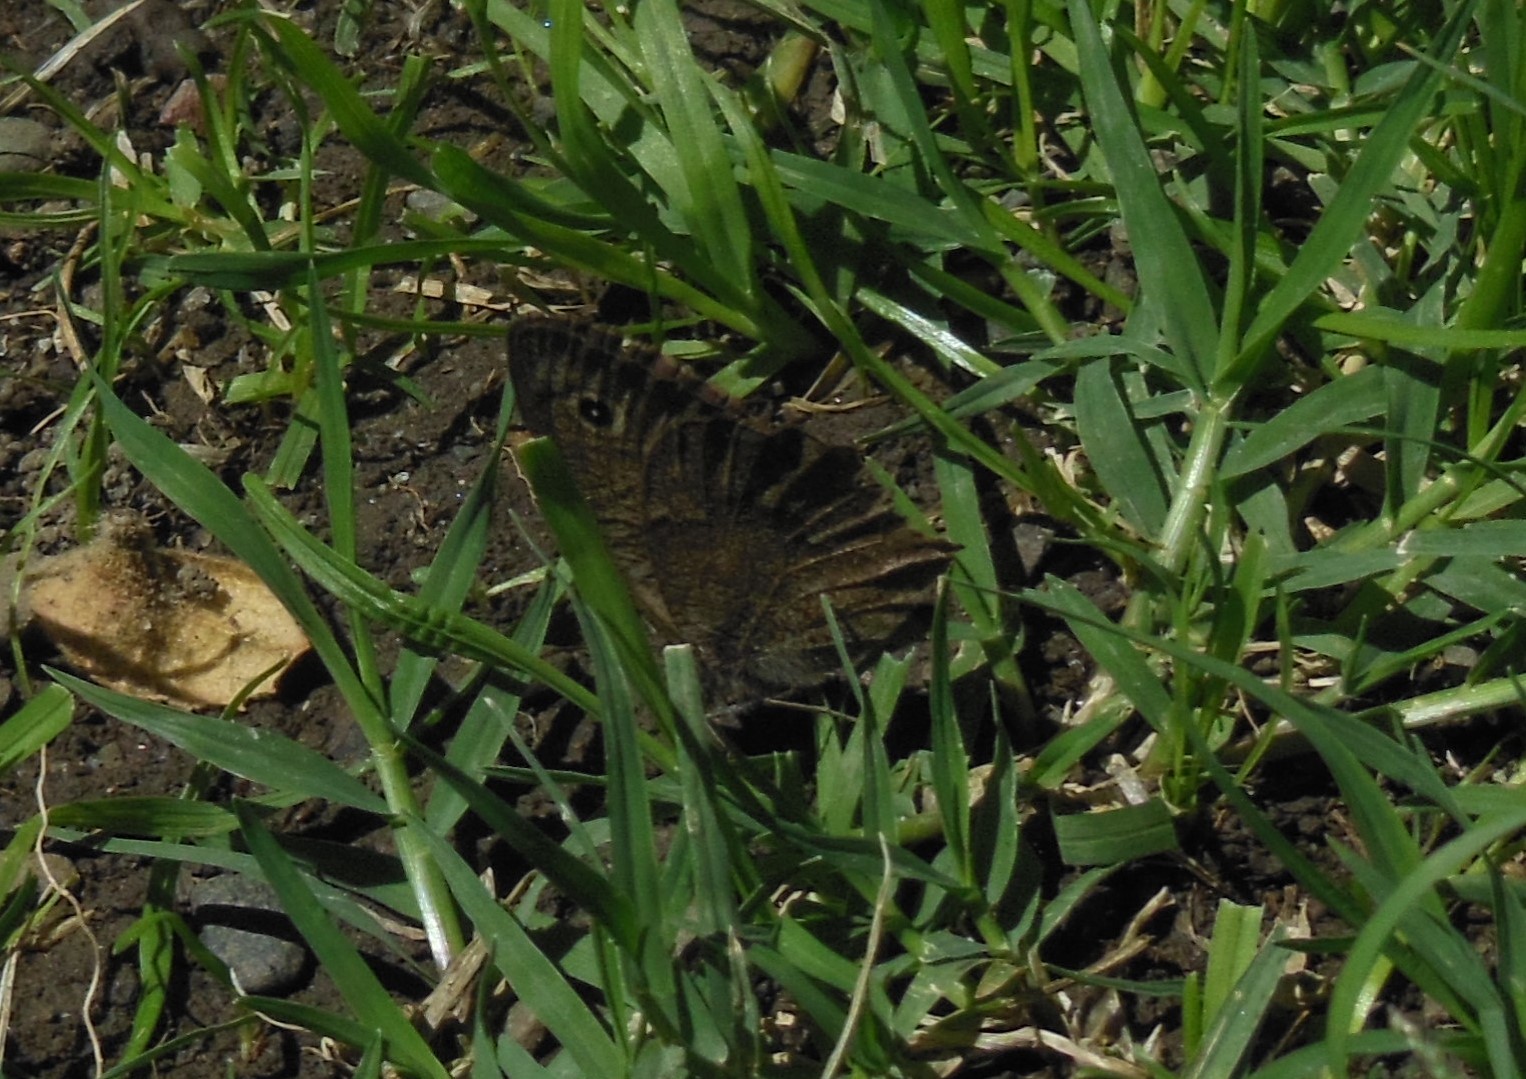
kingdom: Animalia
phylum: Arthropoda
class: Insecta
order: Lepidoptera
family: Nymphalidae
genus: Cercyonis
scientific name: Cercyonis sthenele
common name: Great basin wood-nymph
